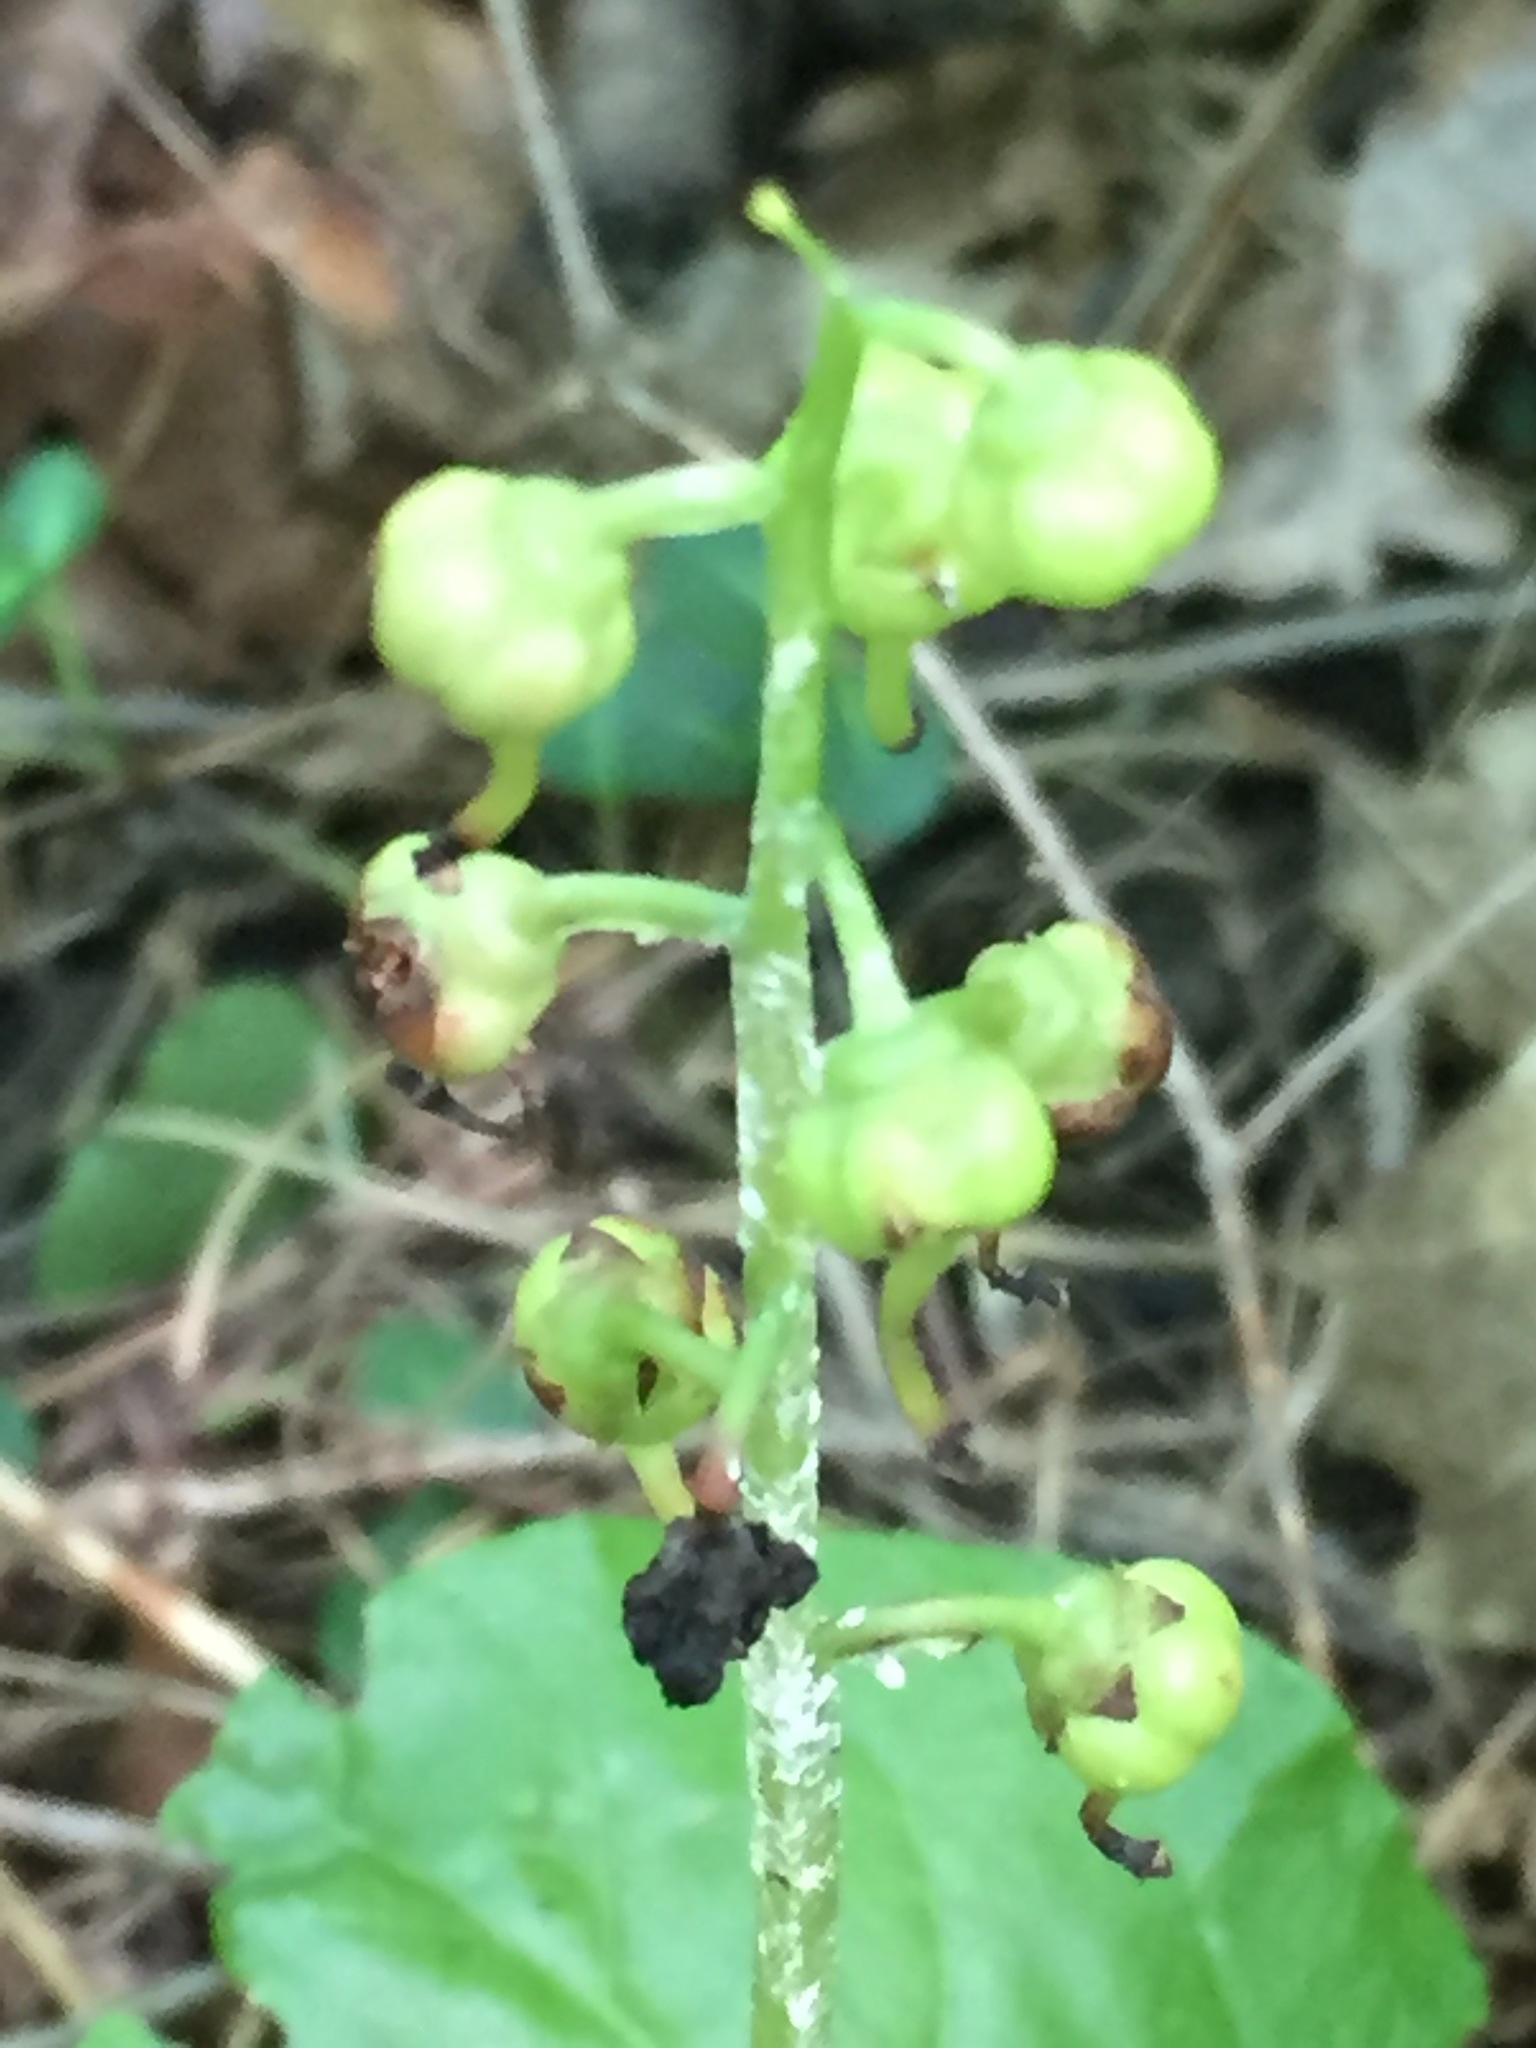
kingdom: Plantae
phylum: Tracheophyta
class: Magnoliopsida
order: Ericales
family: Ericaceae
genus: Pyrola
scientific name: Pyrola elliptica
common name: Shinleaf
